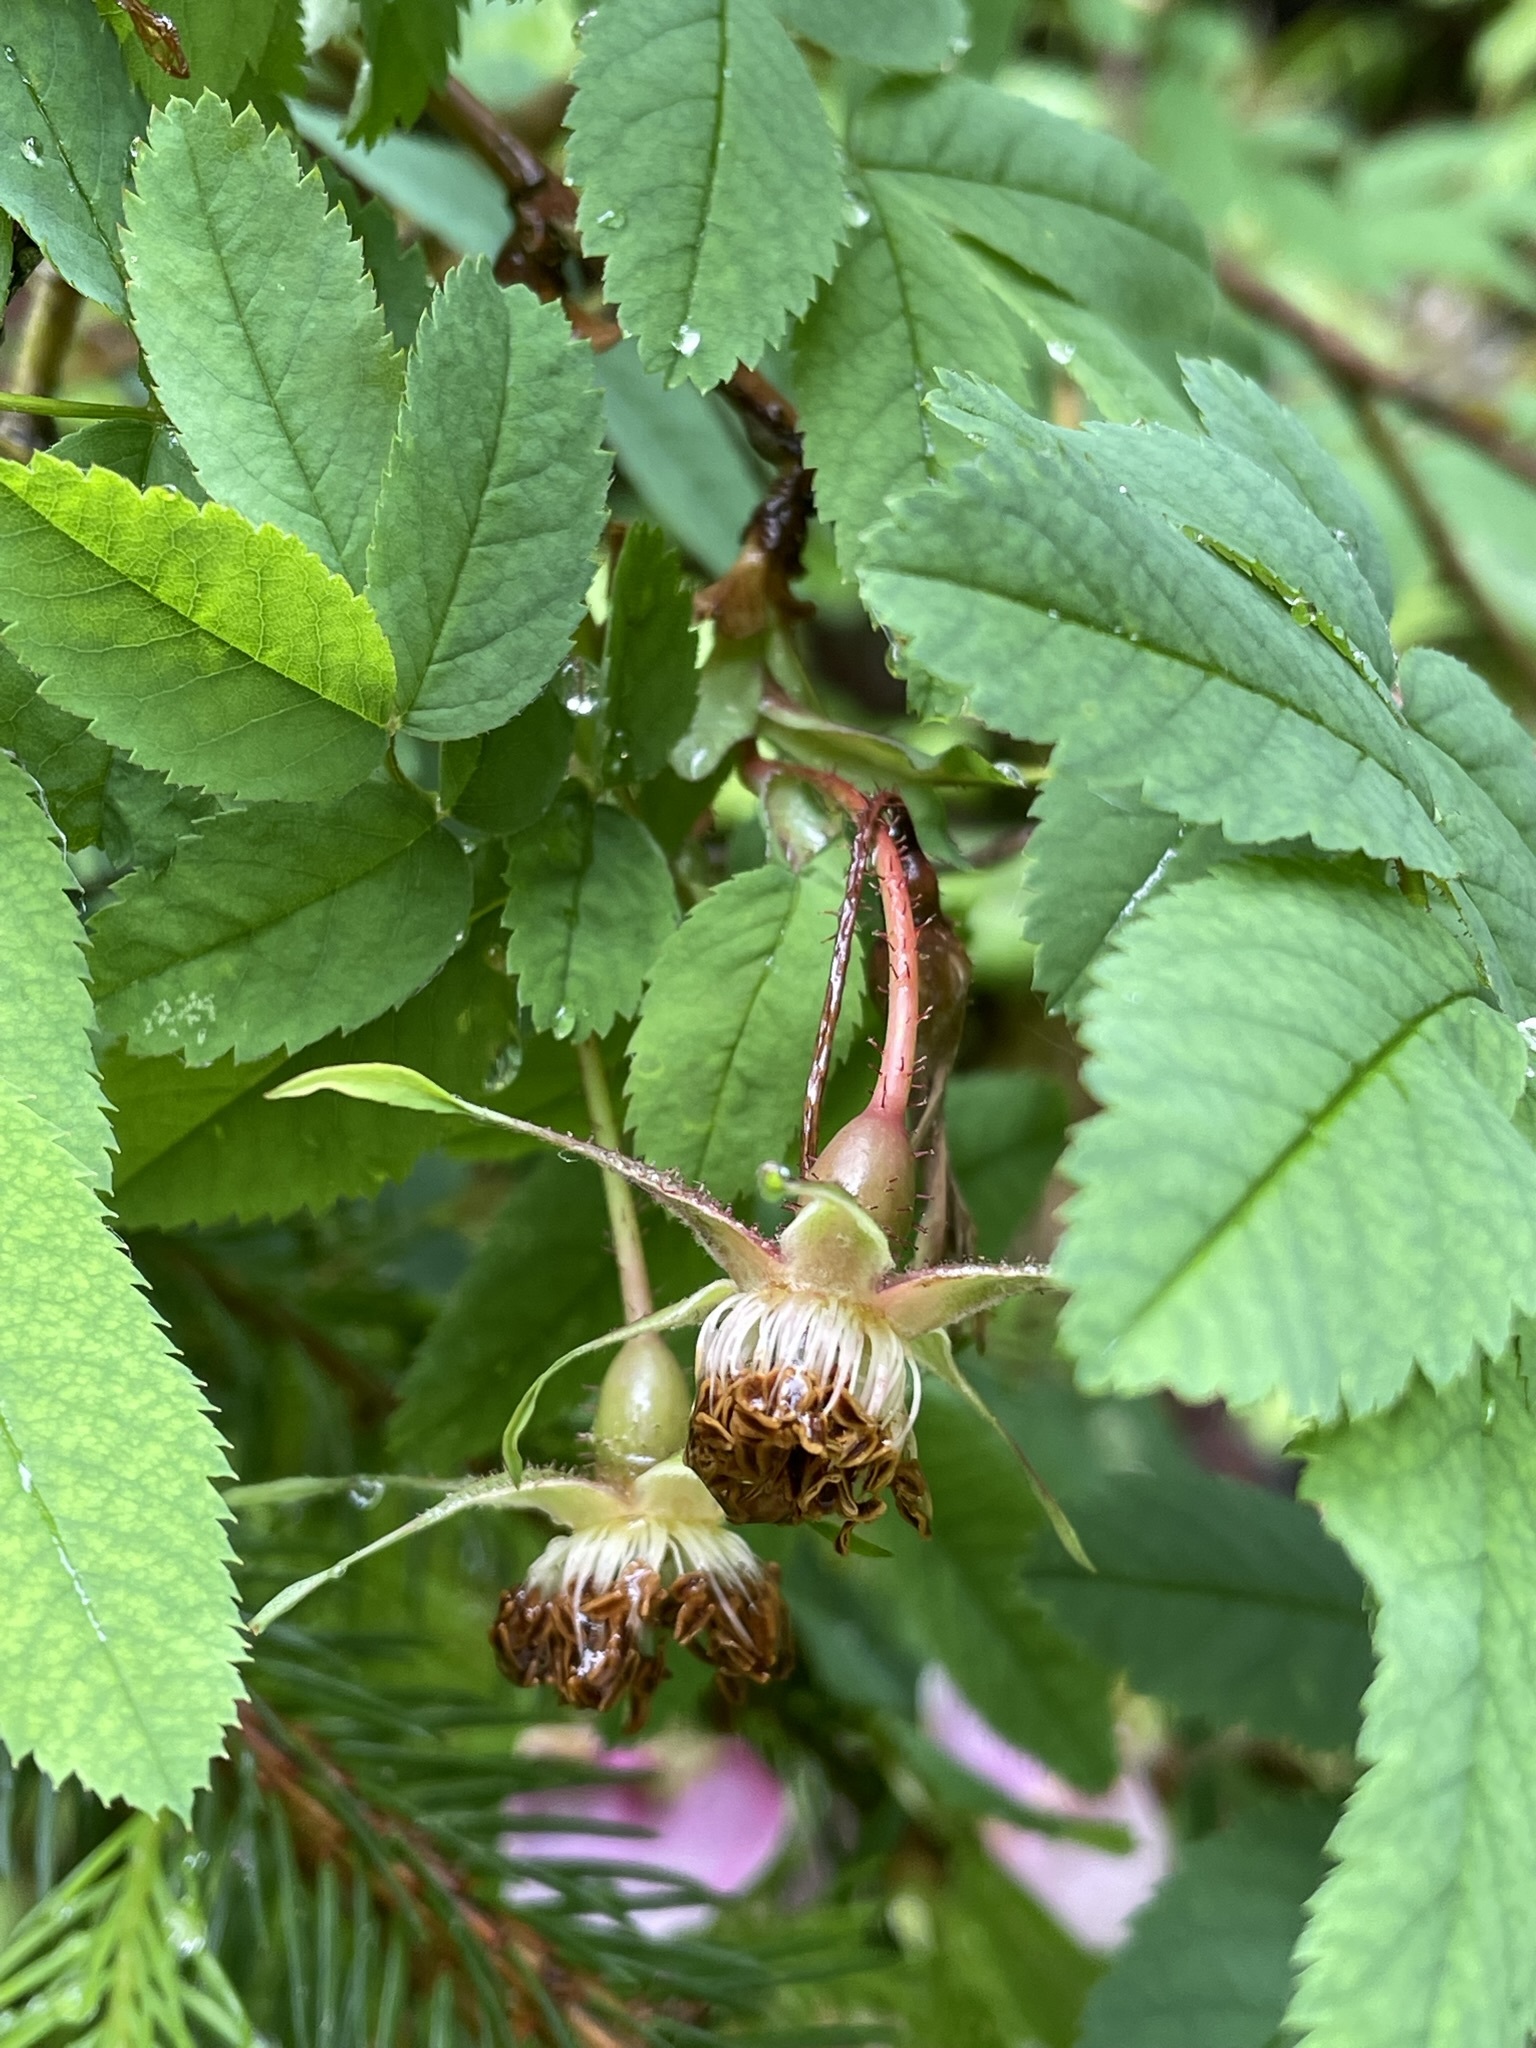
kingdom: Plantae
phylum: Tracheophyta
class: Magnoliopsida
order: Rosales
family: Rosaceae
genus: Rosa
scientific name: Rosa pendulina
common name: Alpine rose
